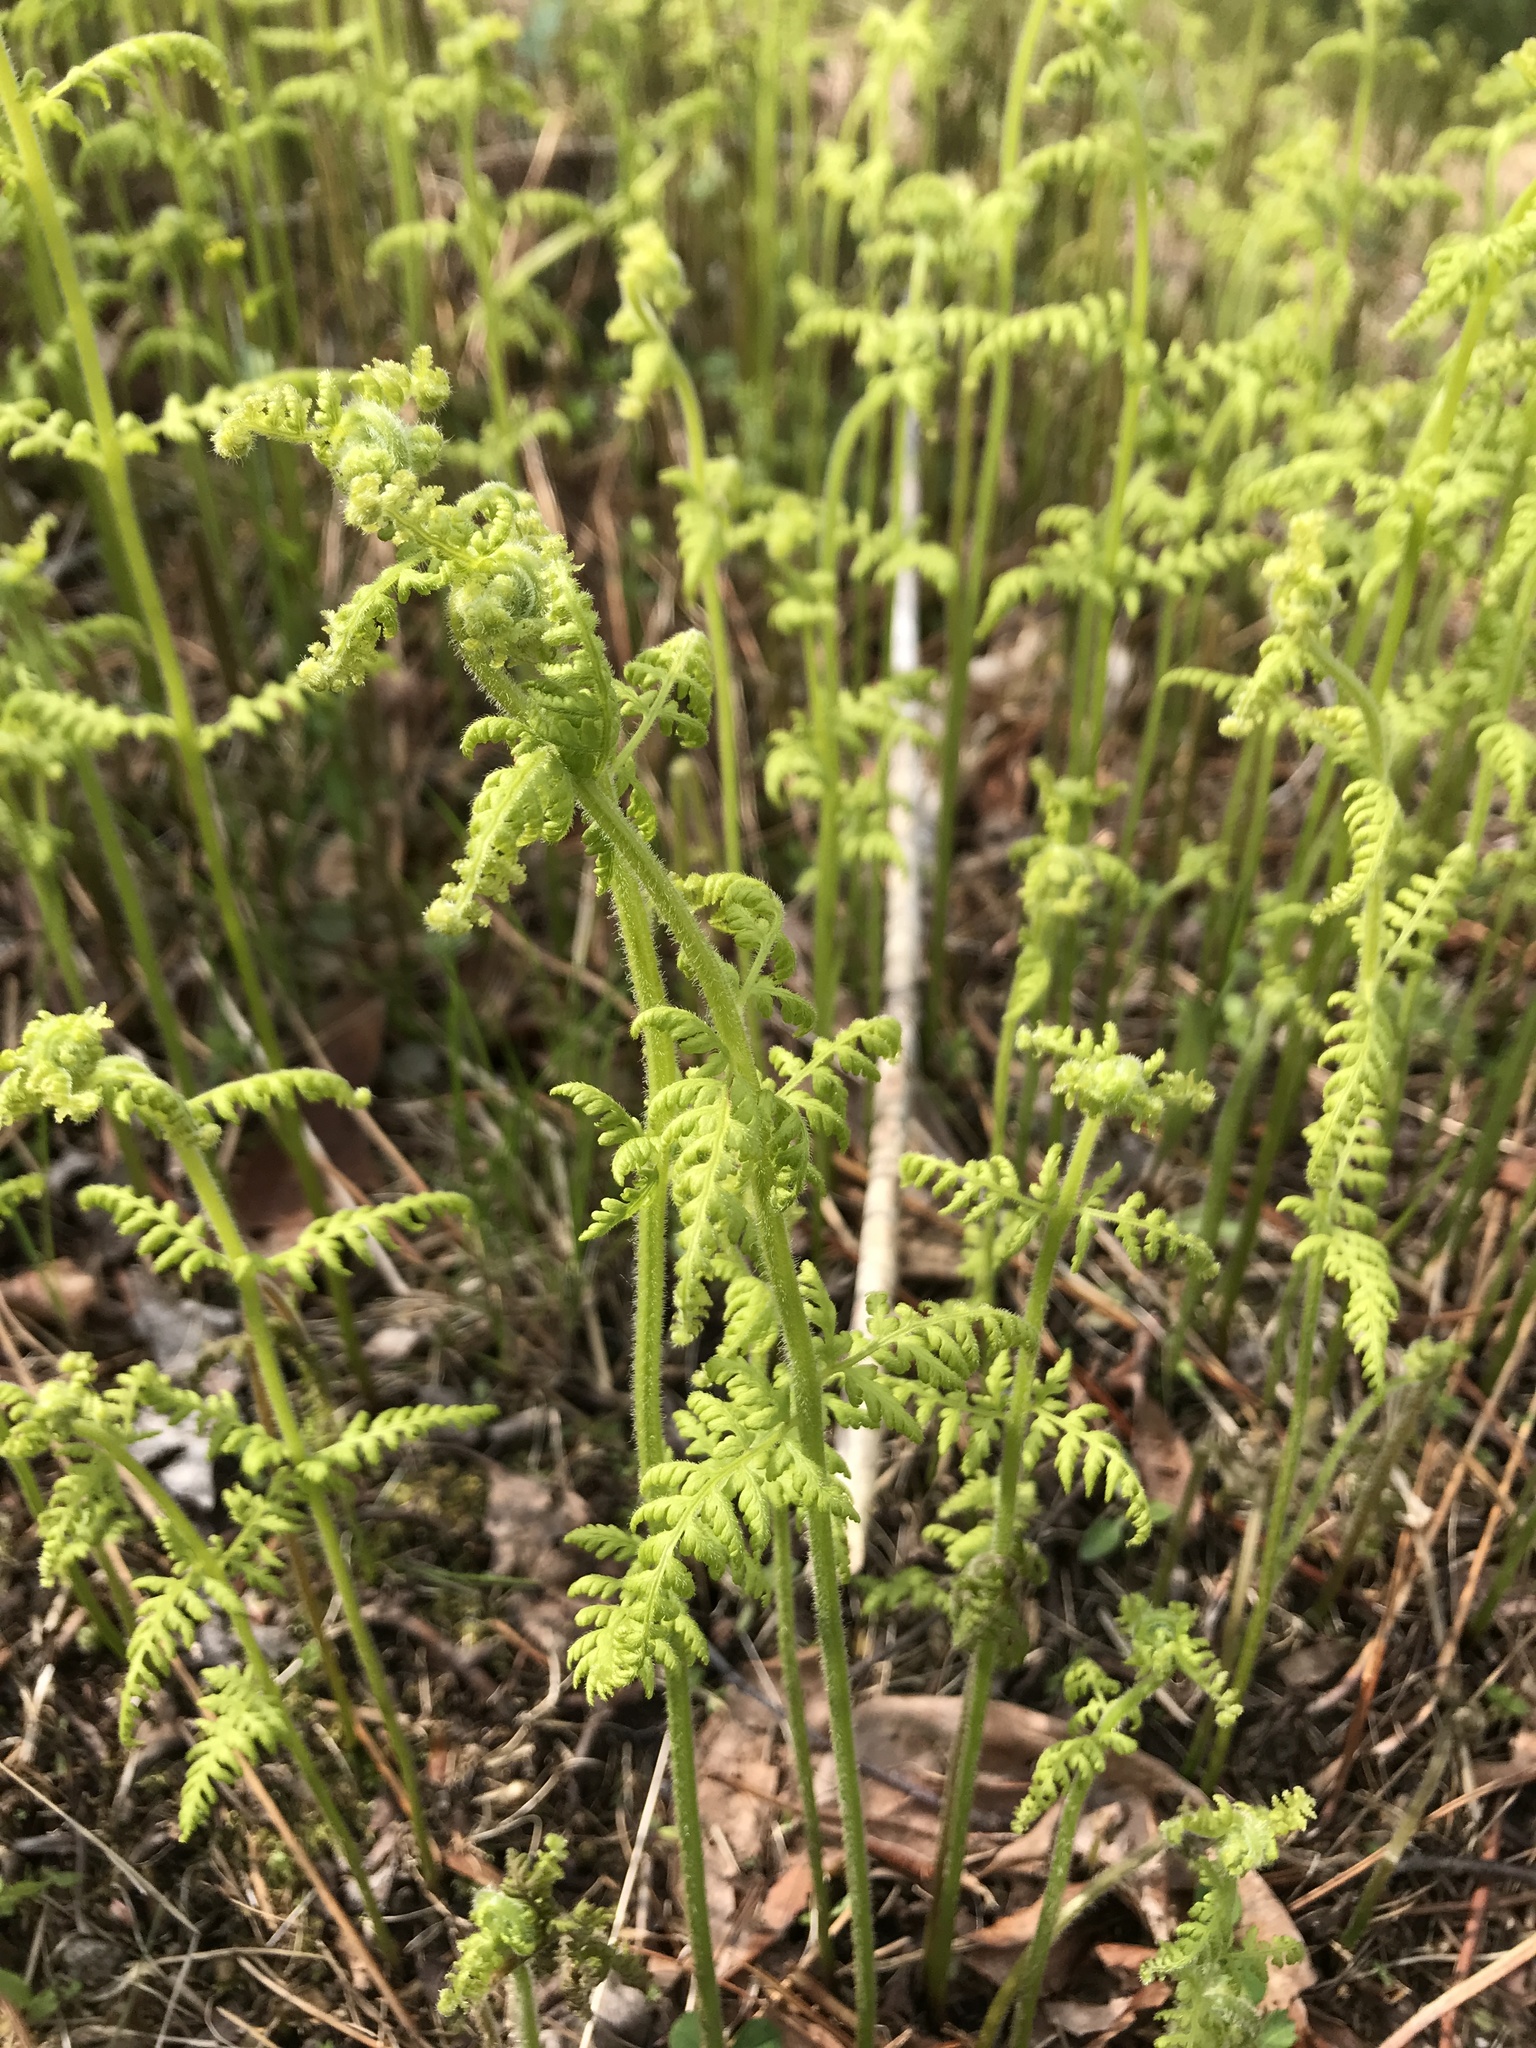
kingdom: Plantae
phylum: Tracheophyta
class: Polypodiopsida
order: Polypodiales
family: Dennstaedtiaceae
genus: Sitobolium
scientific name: Sitobolium punctilobum
